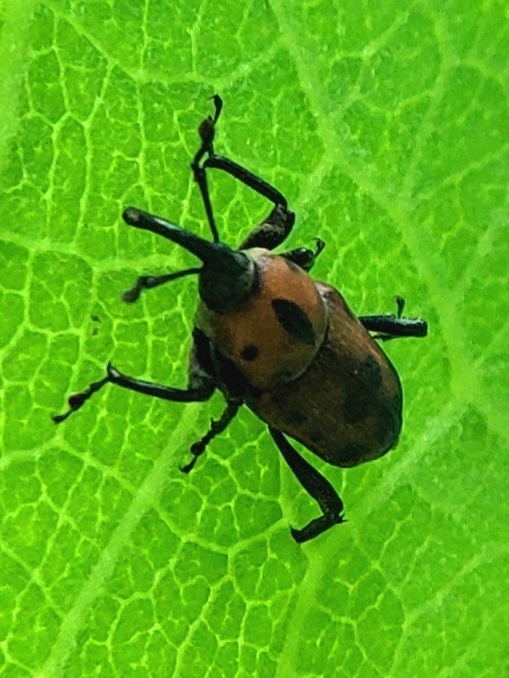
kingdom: Animalia
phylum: Arthropoda
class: Insecta
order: Coleoptera
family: Dryophthoridae
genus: Rhodobaenus
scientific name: Rhodobaenus quinquepunctatus
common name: Cocklebur weevil
